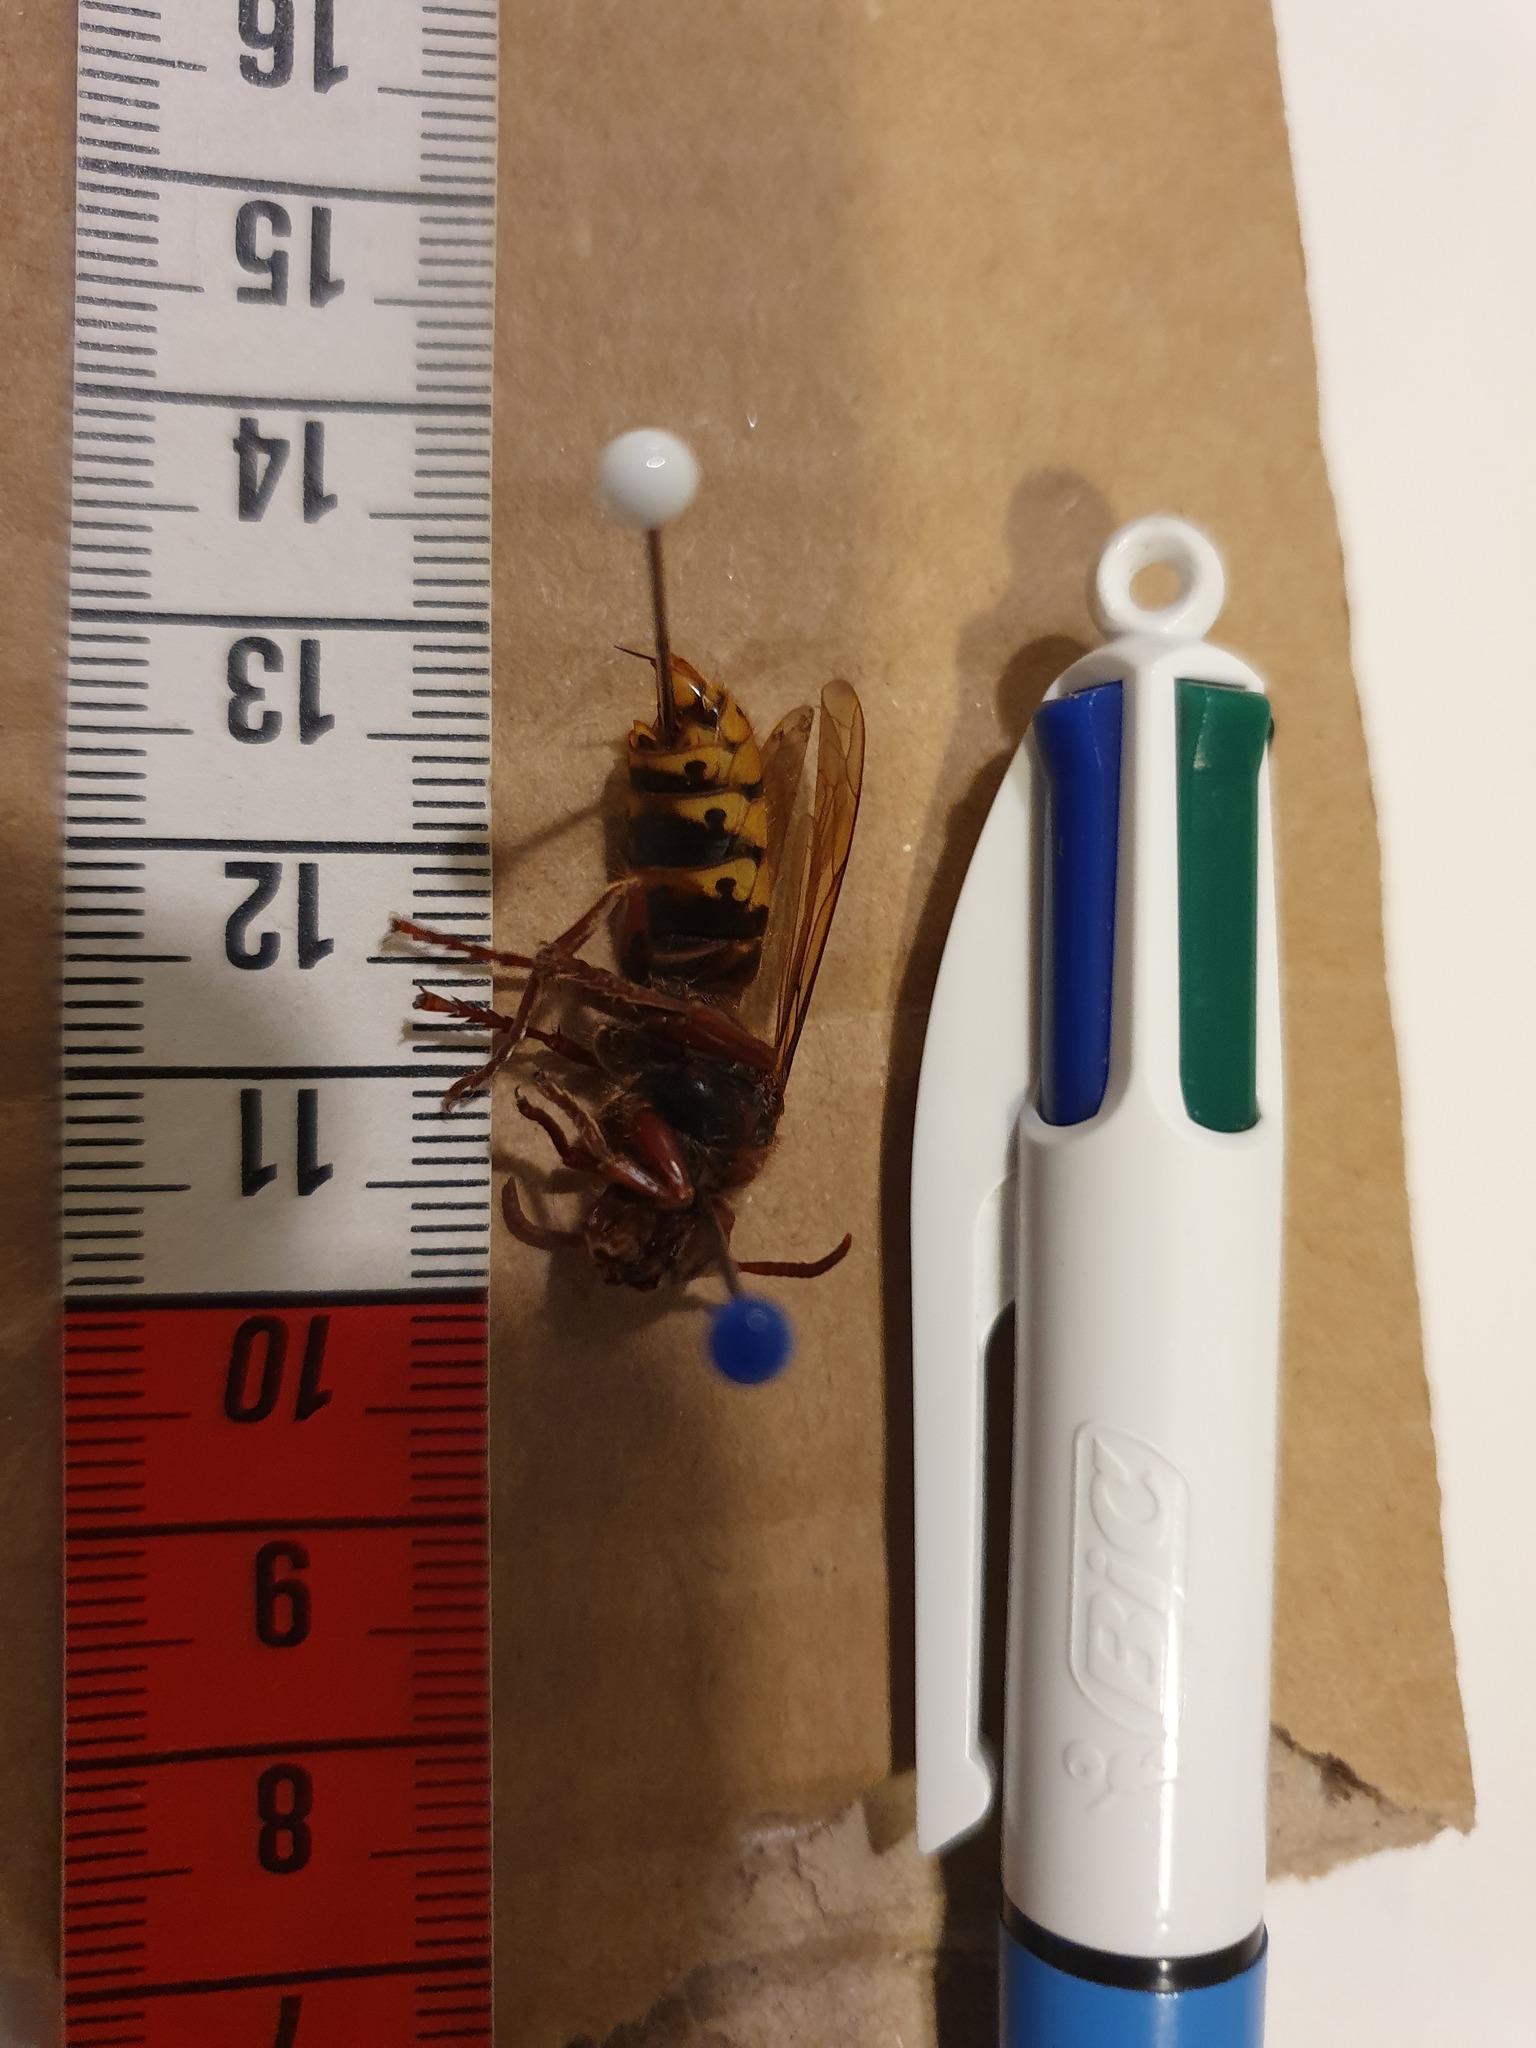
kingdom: Animalia
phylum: Arthropoda
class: Insecta
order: Hymenoptera
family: Vespidae
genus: Vespa
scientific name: Vespa crabro
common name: Hornet
